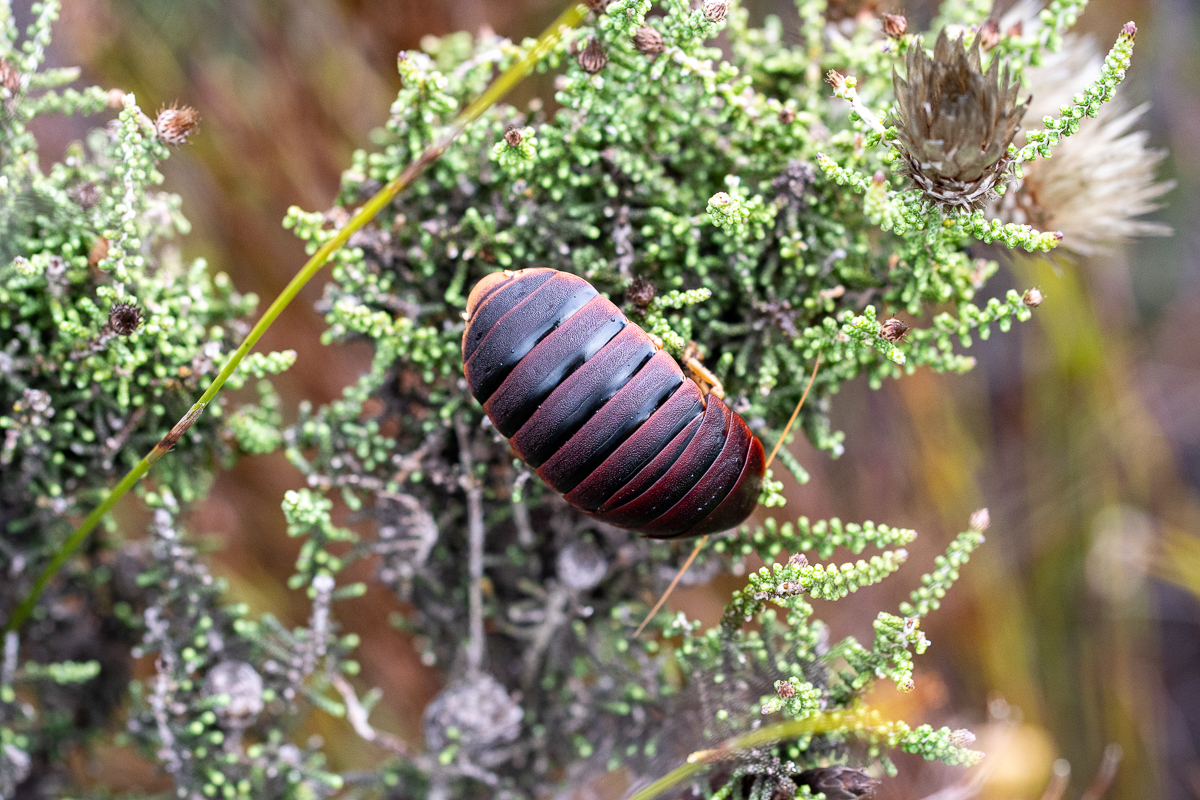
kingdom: Animalia
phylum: Arthropoda
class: Insecta
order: Blattodea
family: Blaberidae
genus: Aptera
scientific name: Aptera fusca
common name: Cape mountain cockroach
